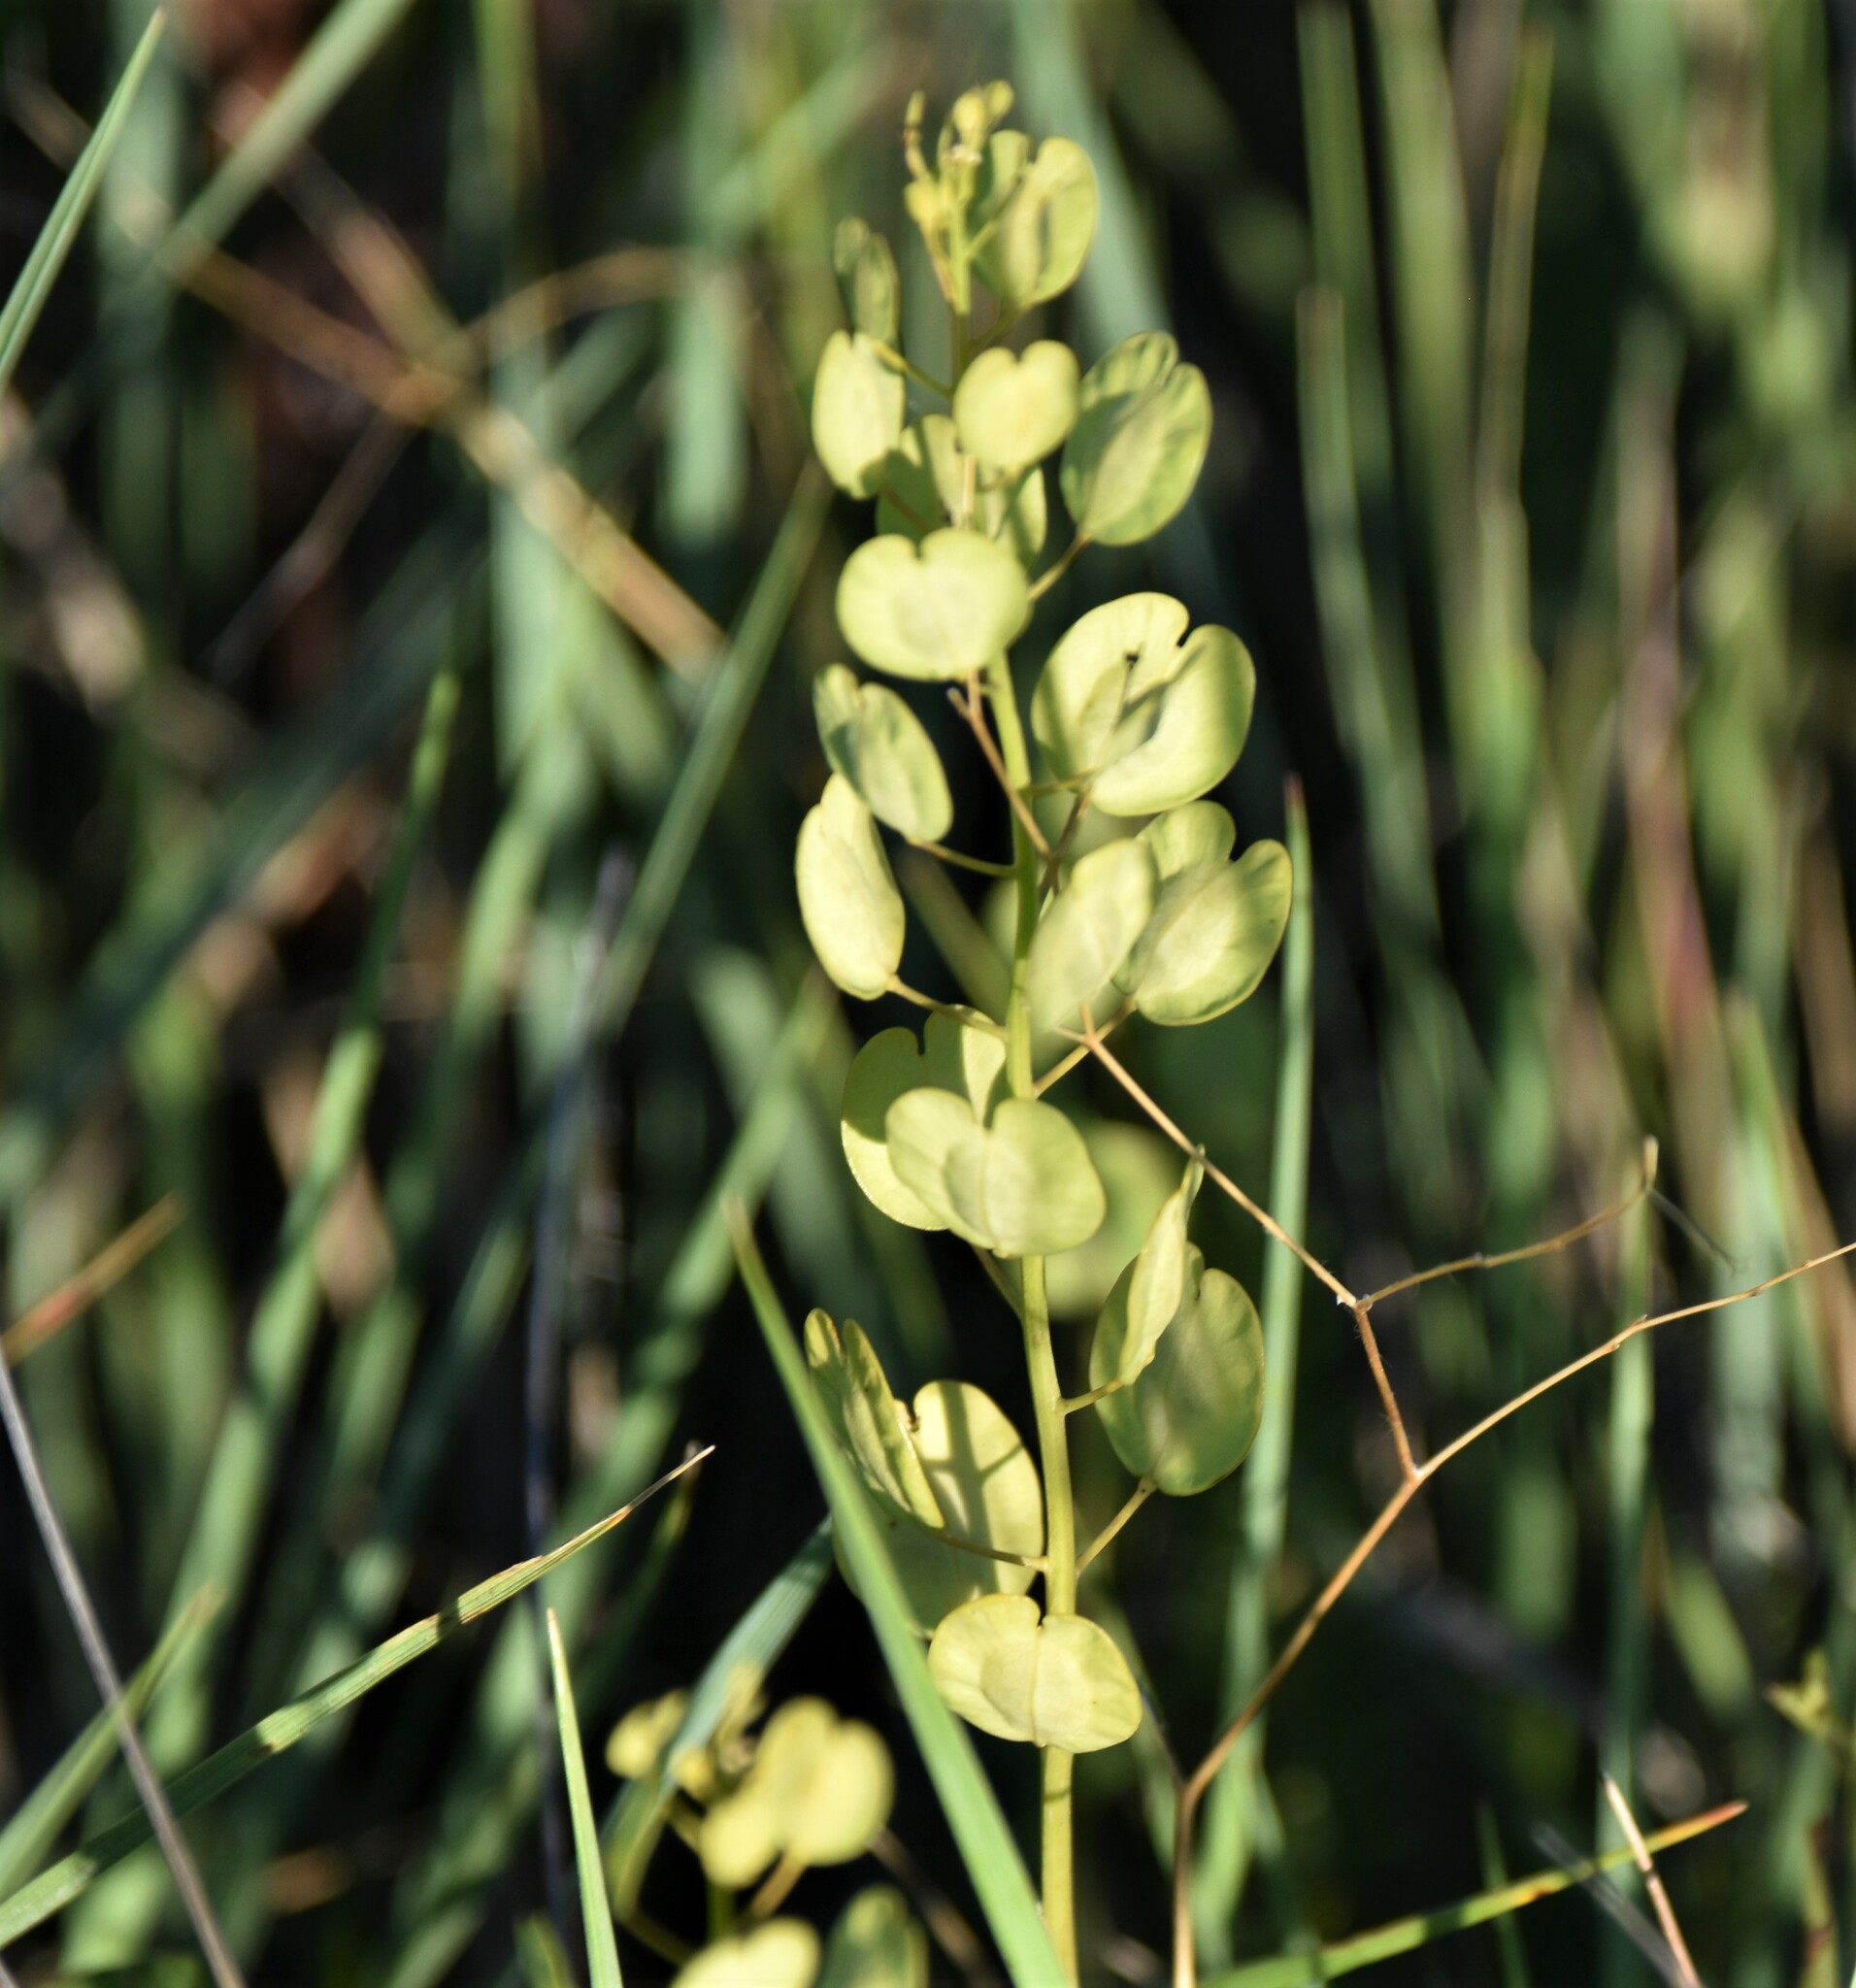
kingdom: Plantae
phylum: Tracheophyta
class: Magnoliopsida
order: Brassicales
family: Brassicaceae
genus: Thlaspi
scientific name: Thlaspi arvense
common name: Field pennycress
